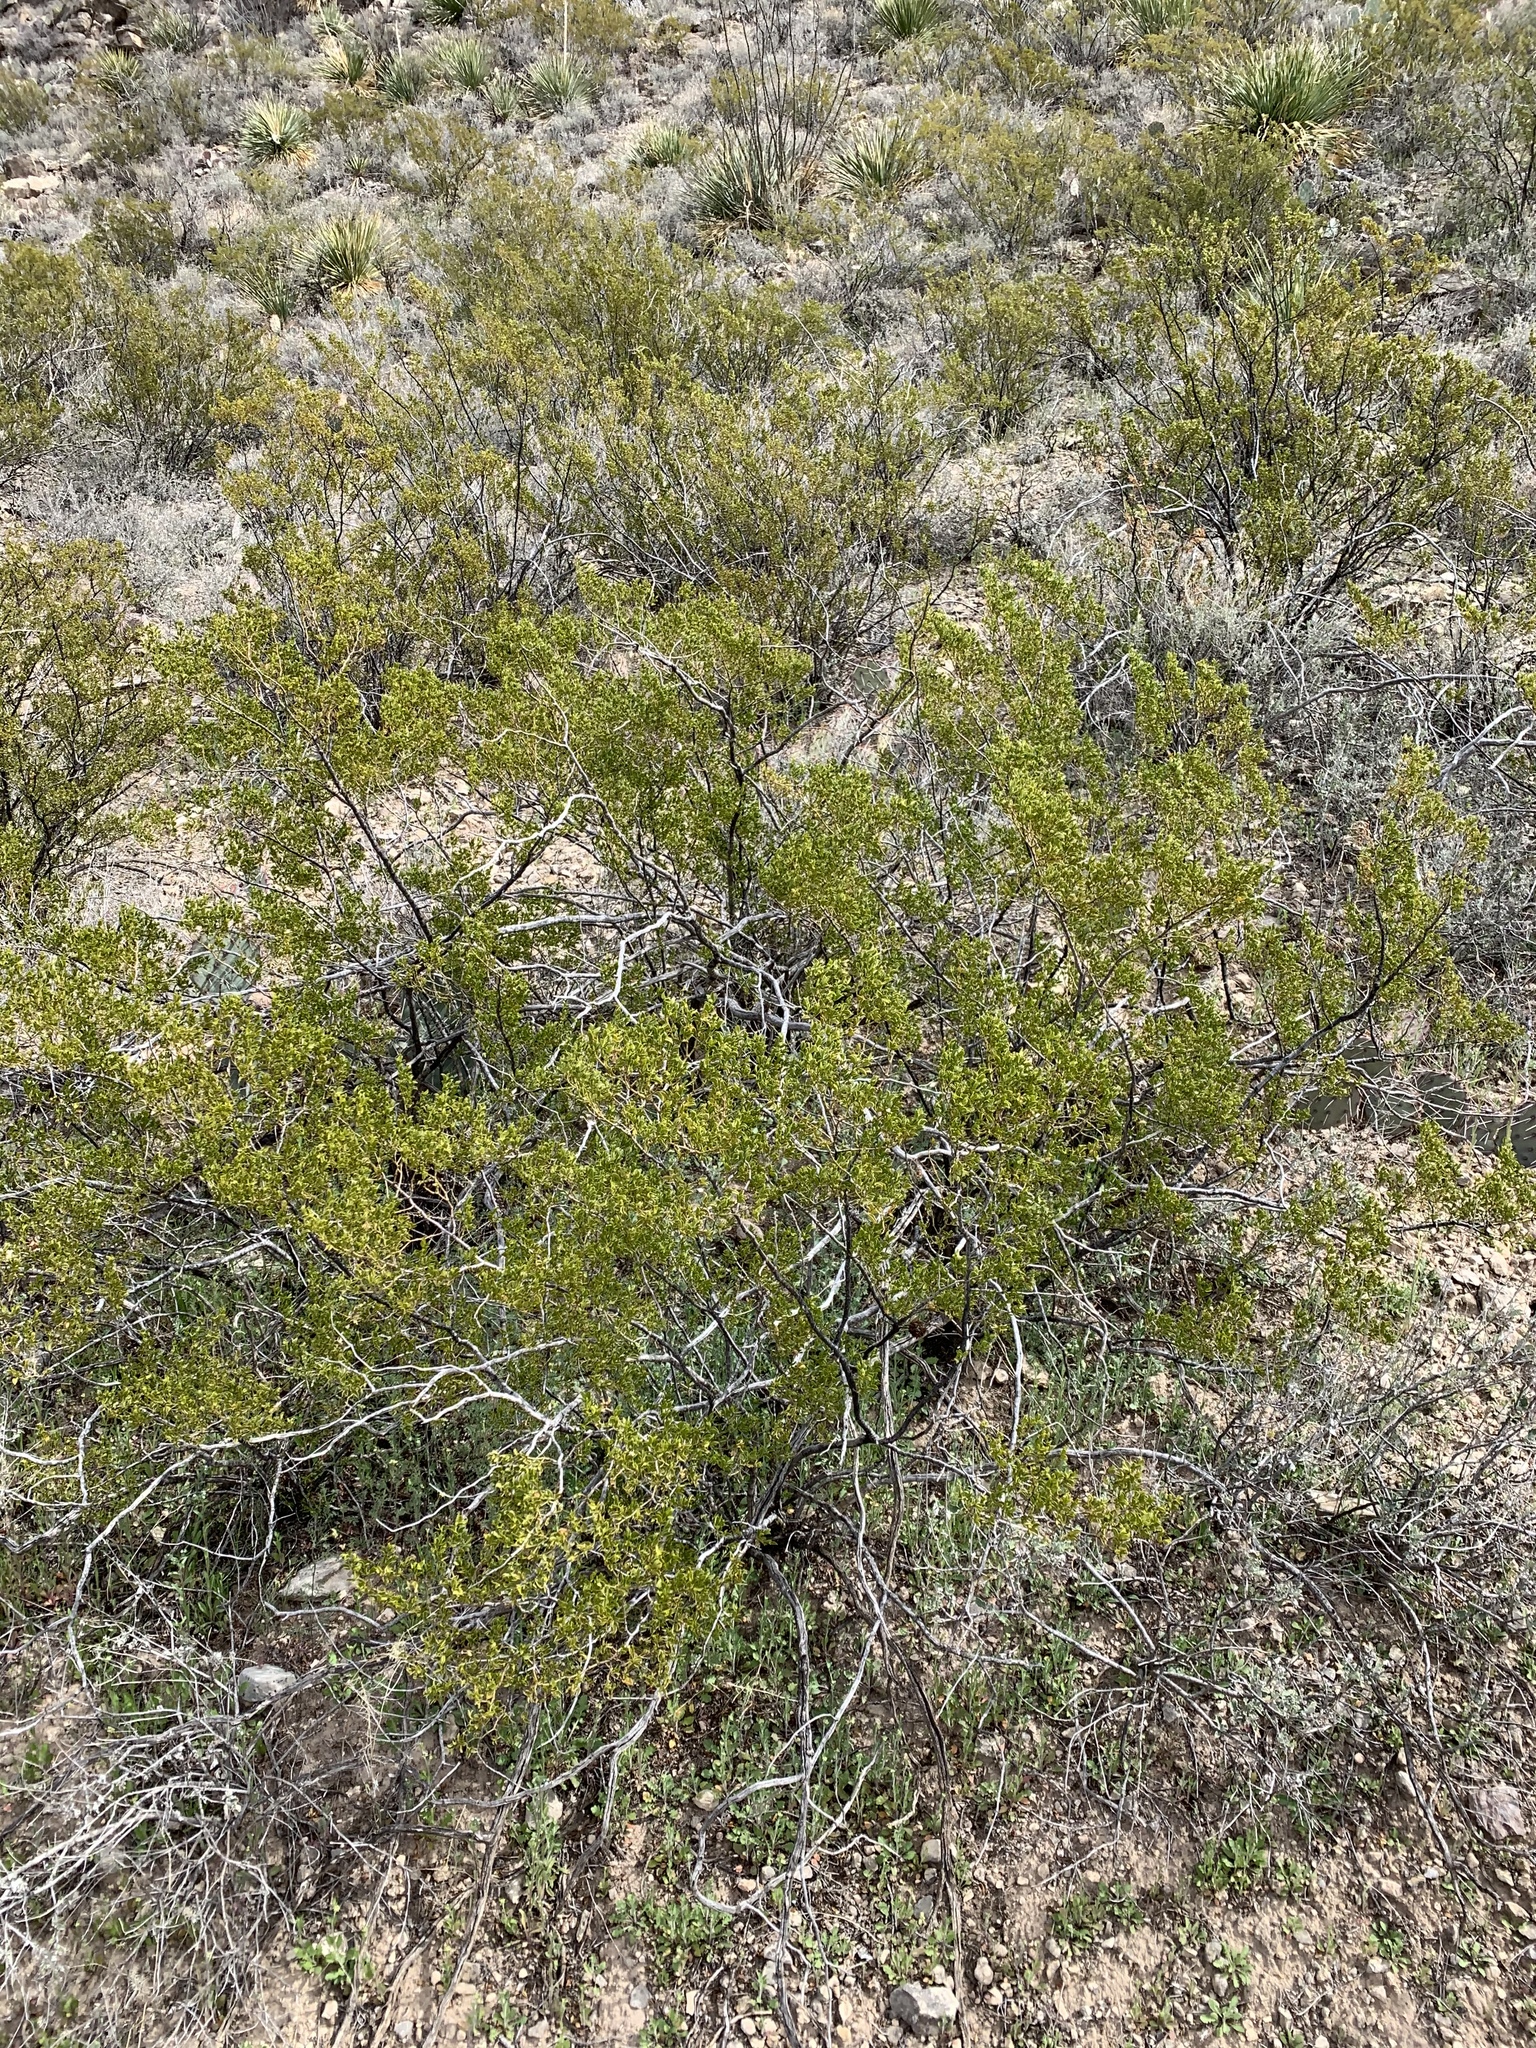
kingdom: Plantae
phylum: Tracheophyta
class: Magnoliopsida
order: Zygophyllales
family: Zygophyllaceae
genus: Larrea
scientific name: Larrea tridentata
